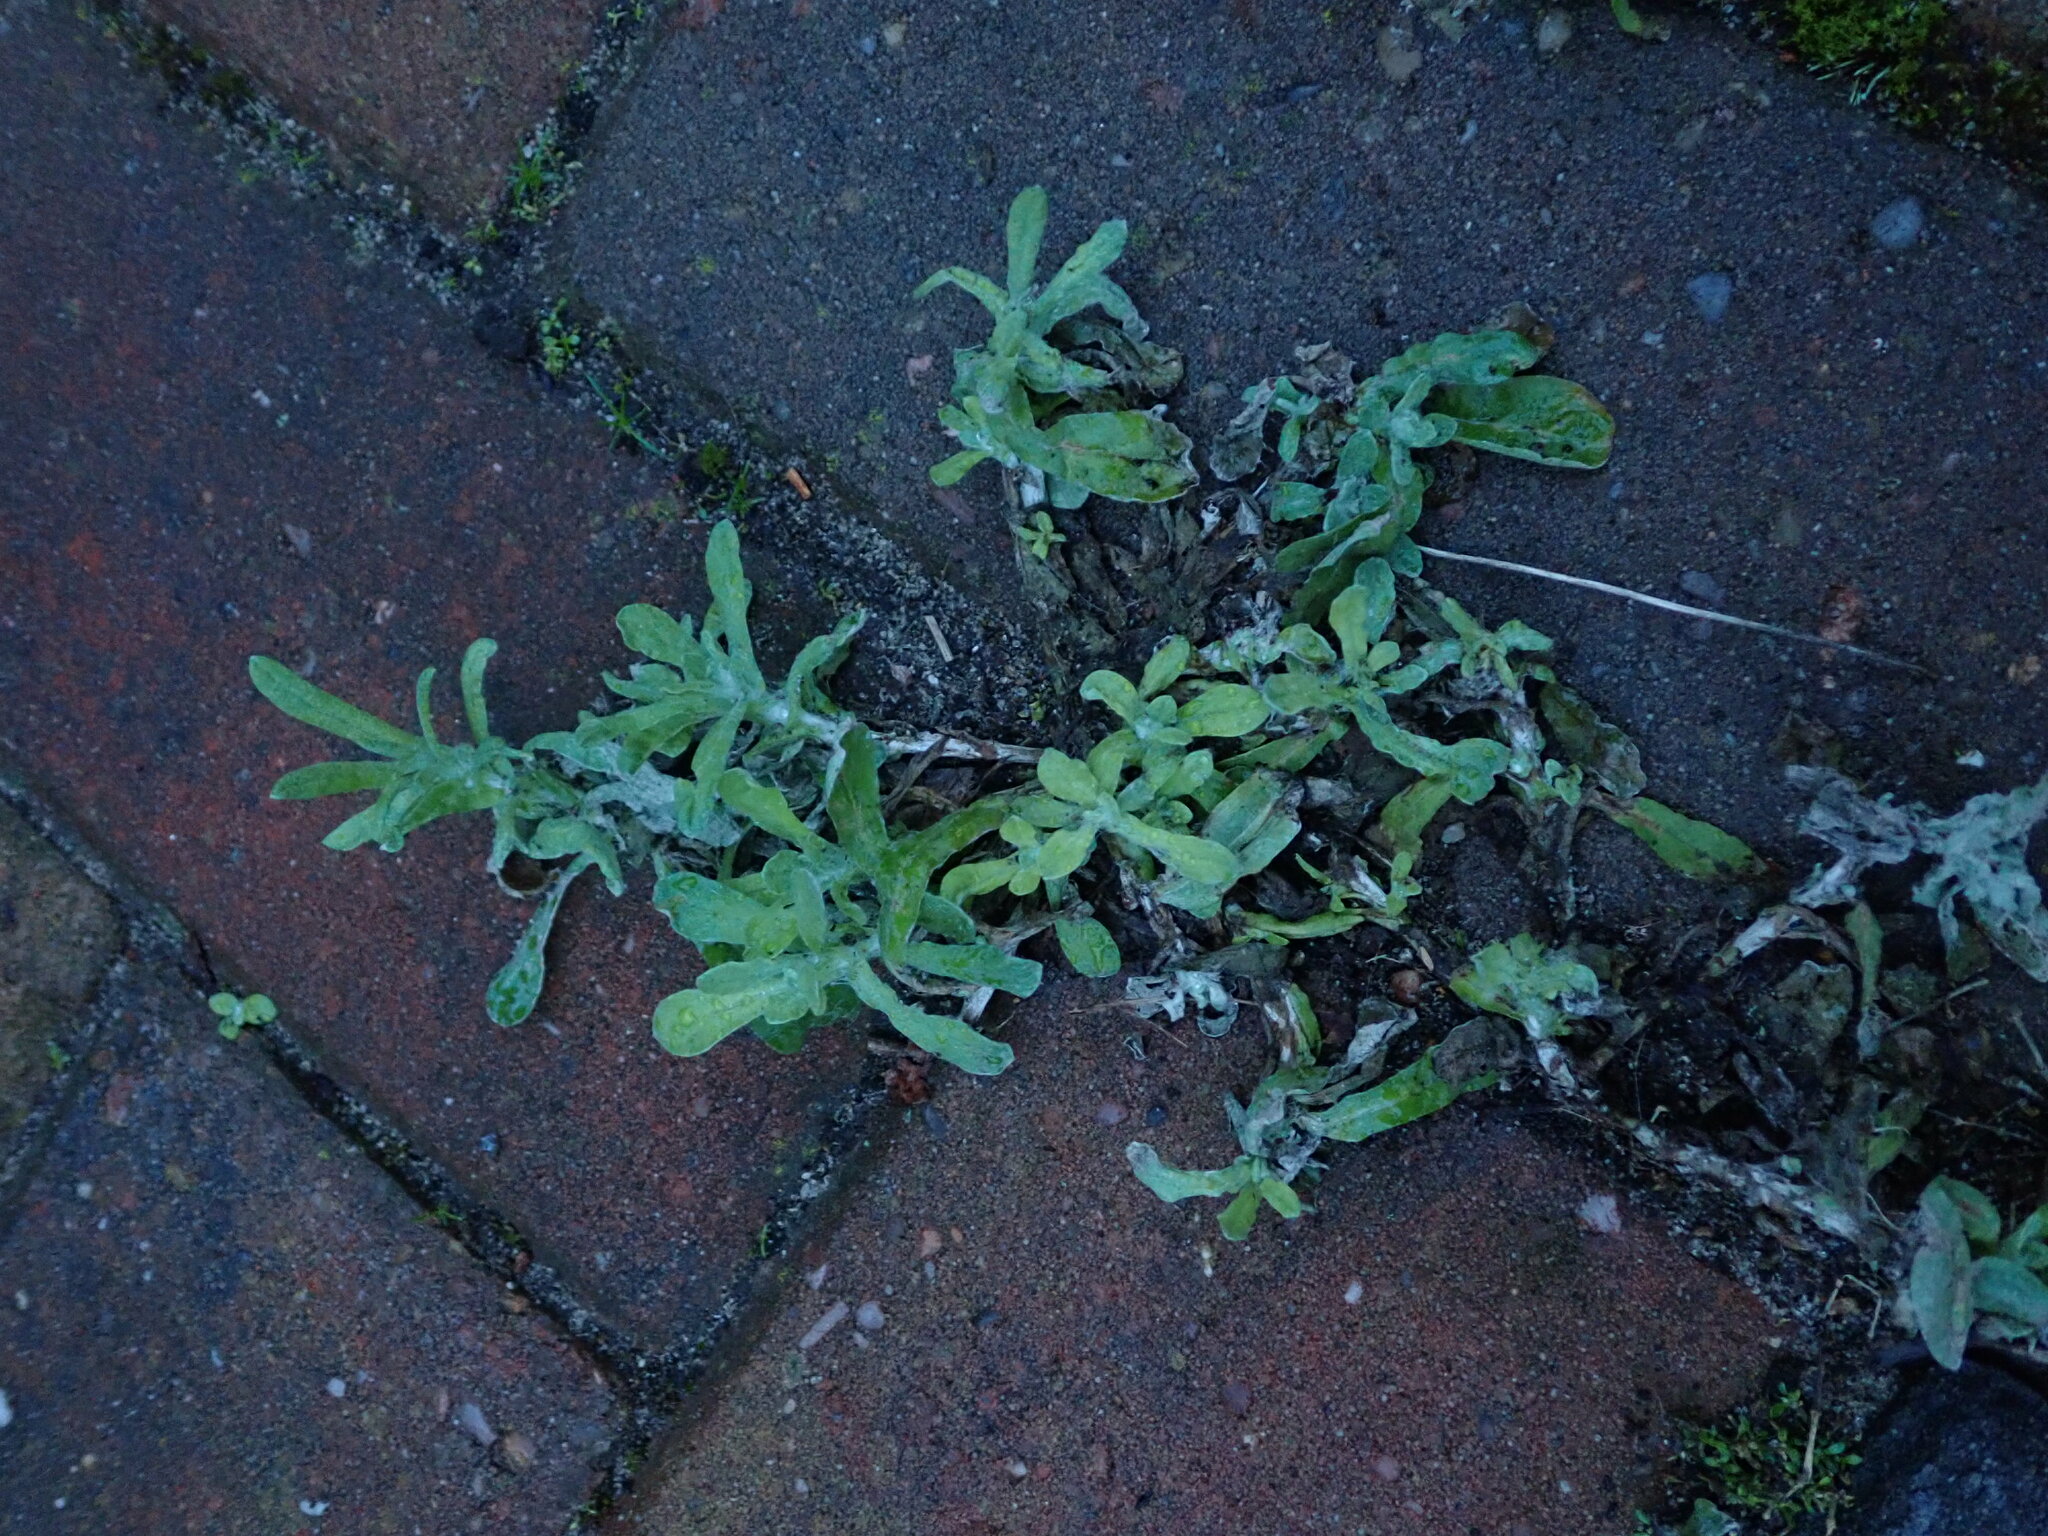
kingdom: Plantae
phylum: Tracheophyta
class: Magnoliopsida
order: Asterales
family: Asteraceae
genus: Helichrysum
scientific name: Helichrysum luteoalbum
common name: Daisy
